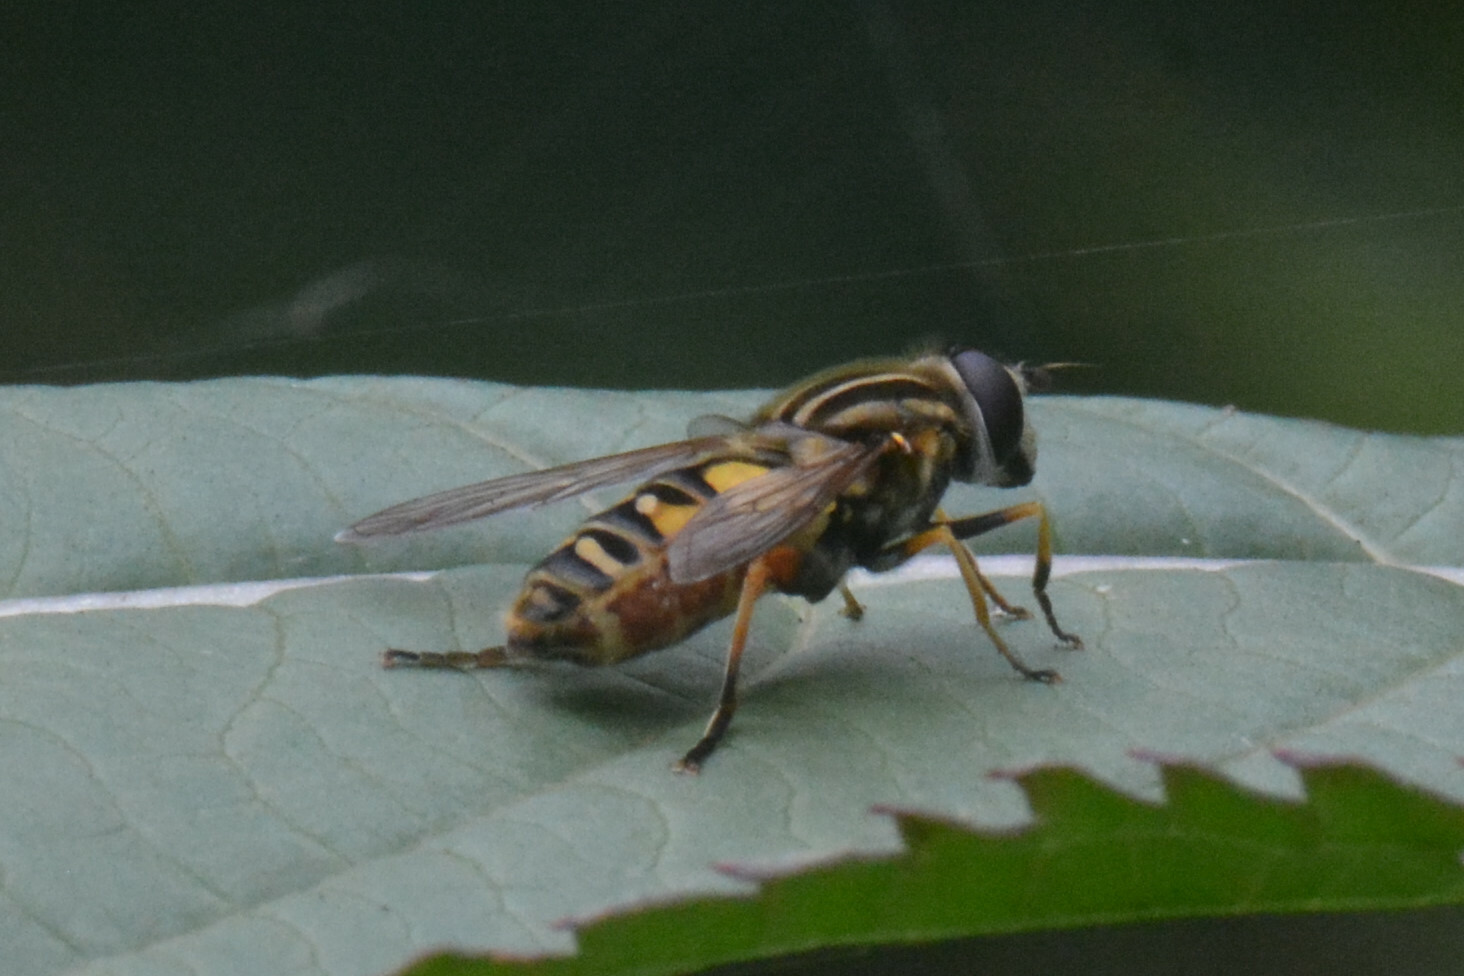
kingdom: Animalia
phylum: Arthropoda
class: Insecta
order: Diptera
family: Syrphidae
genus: Helophilus
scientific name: Helophilus pendulus
